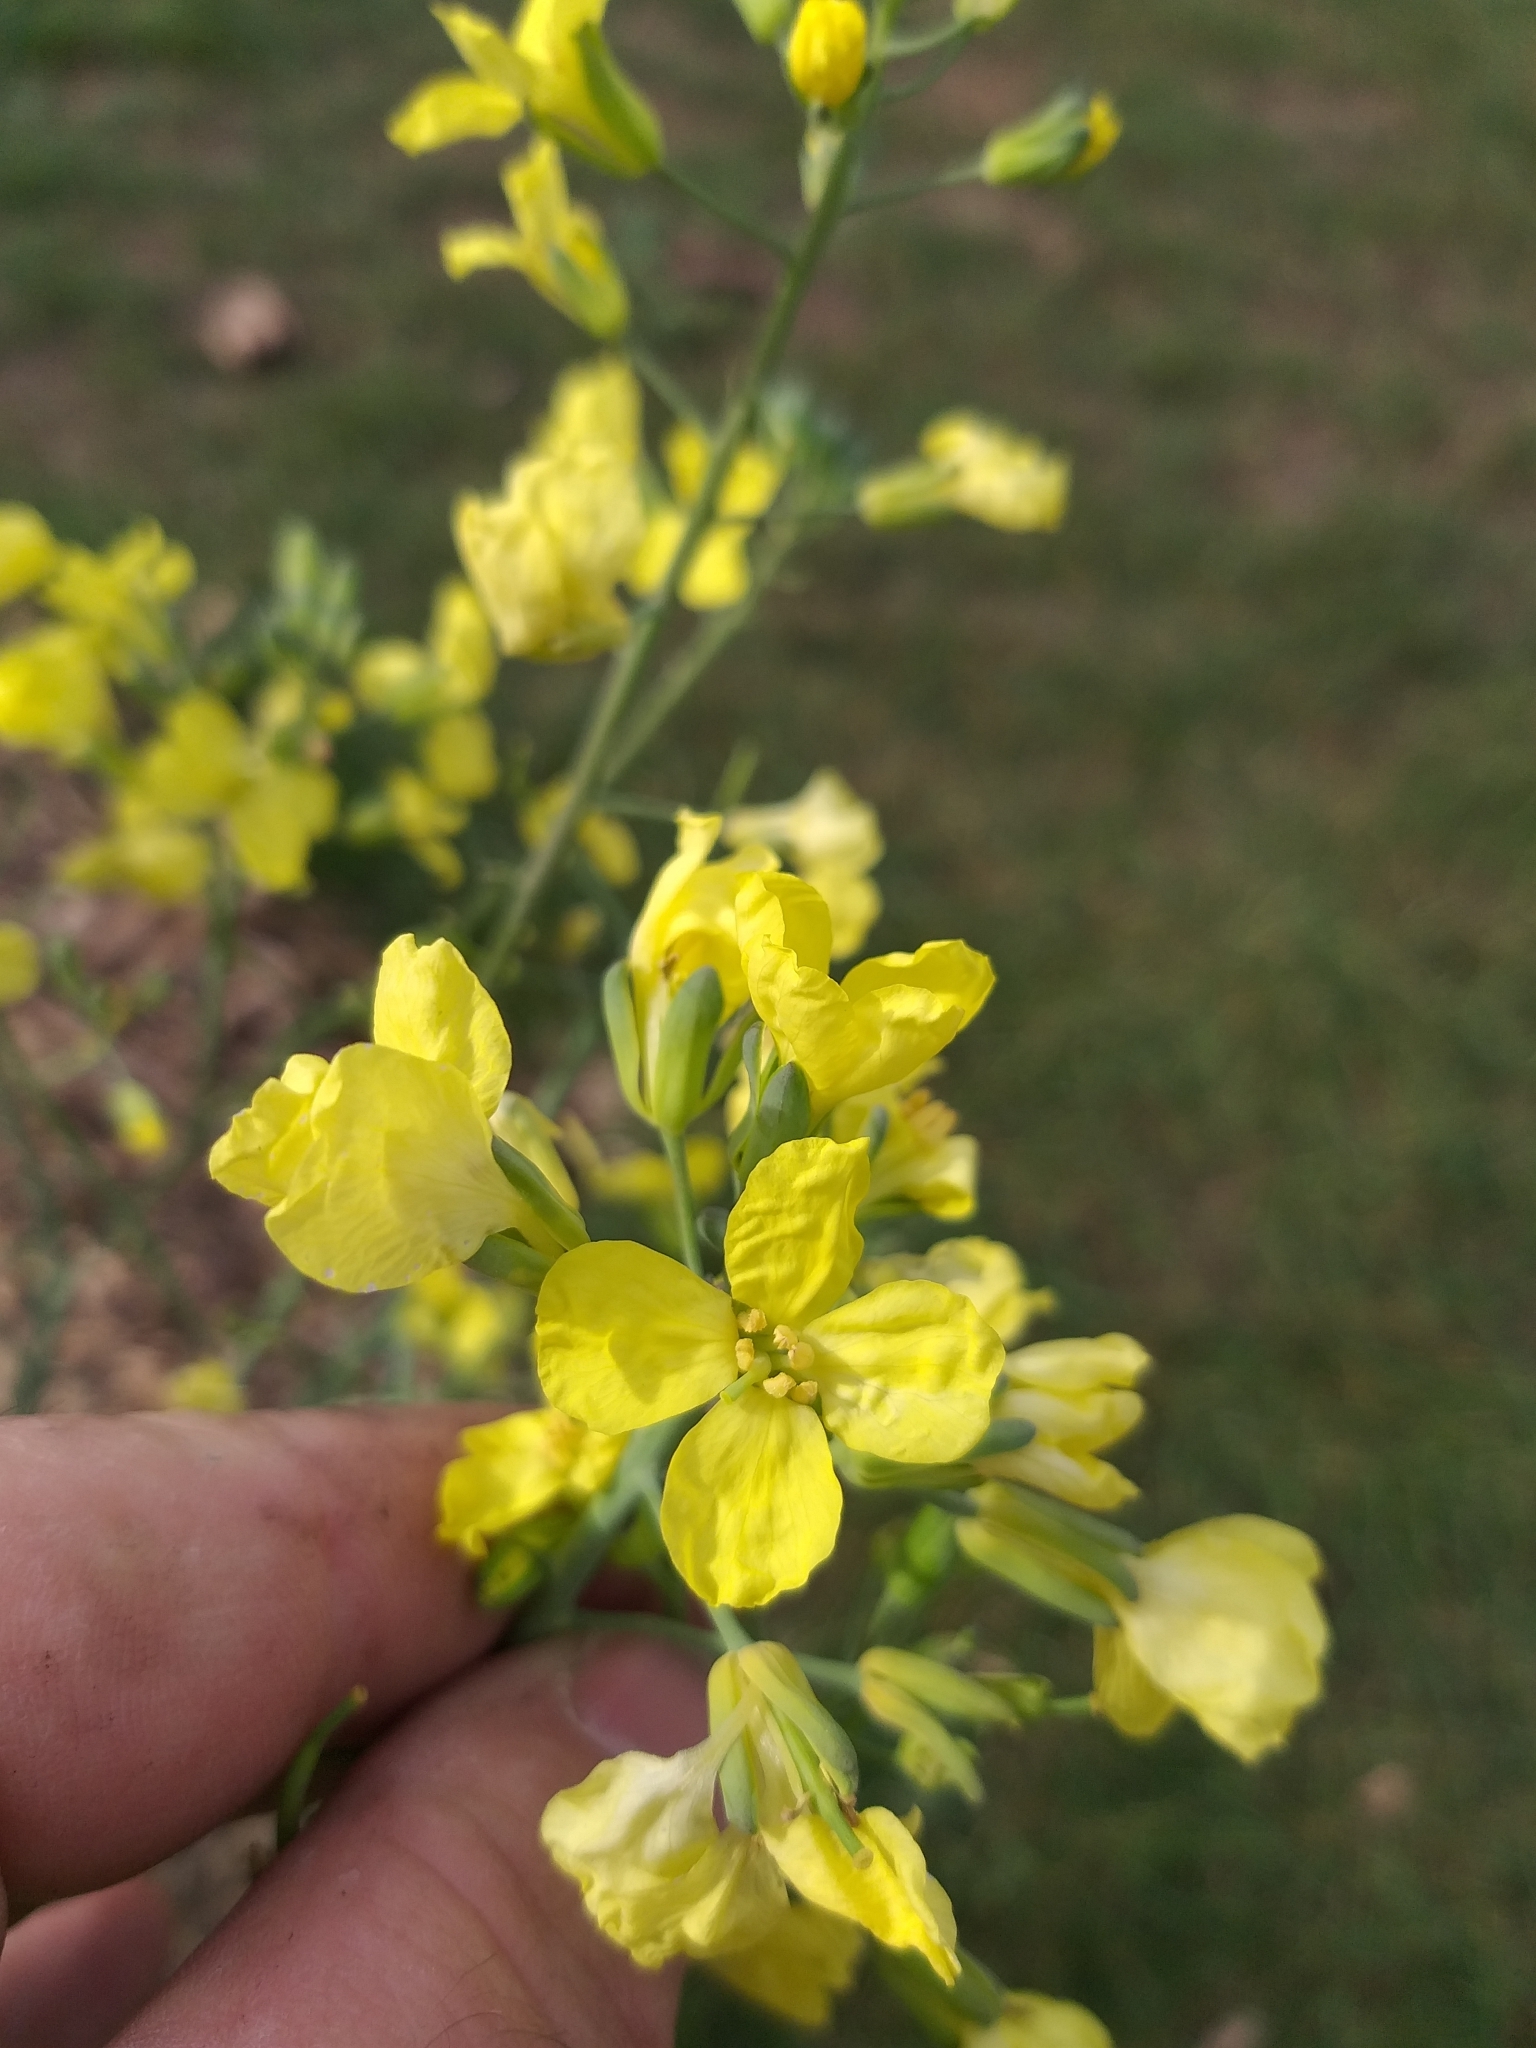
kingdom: Plantae
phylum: Tracheophyta
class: Magnoliopsida
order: Brassicales
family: Brassicaceae
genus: Brassica
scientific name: Brassica oleracea
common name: Cabbage
